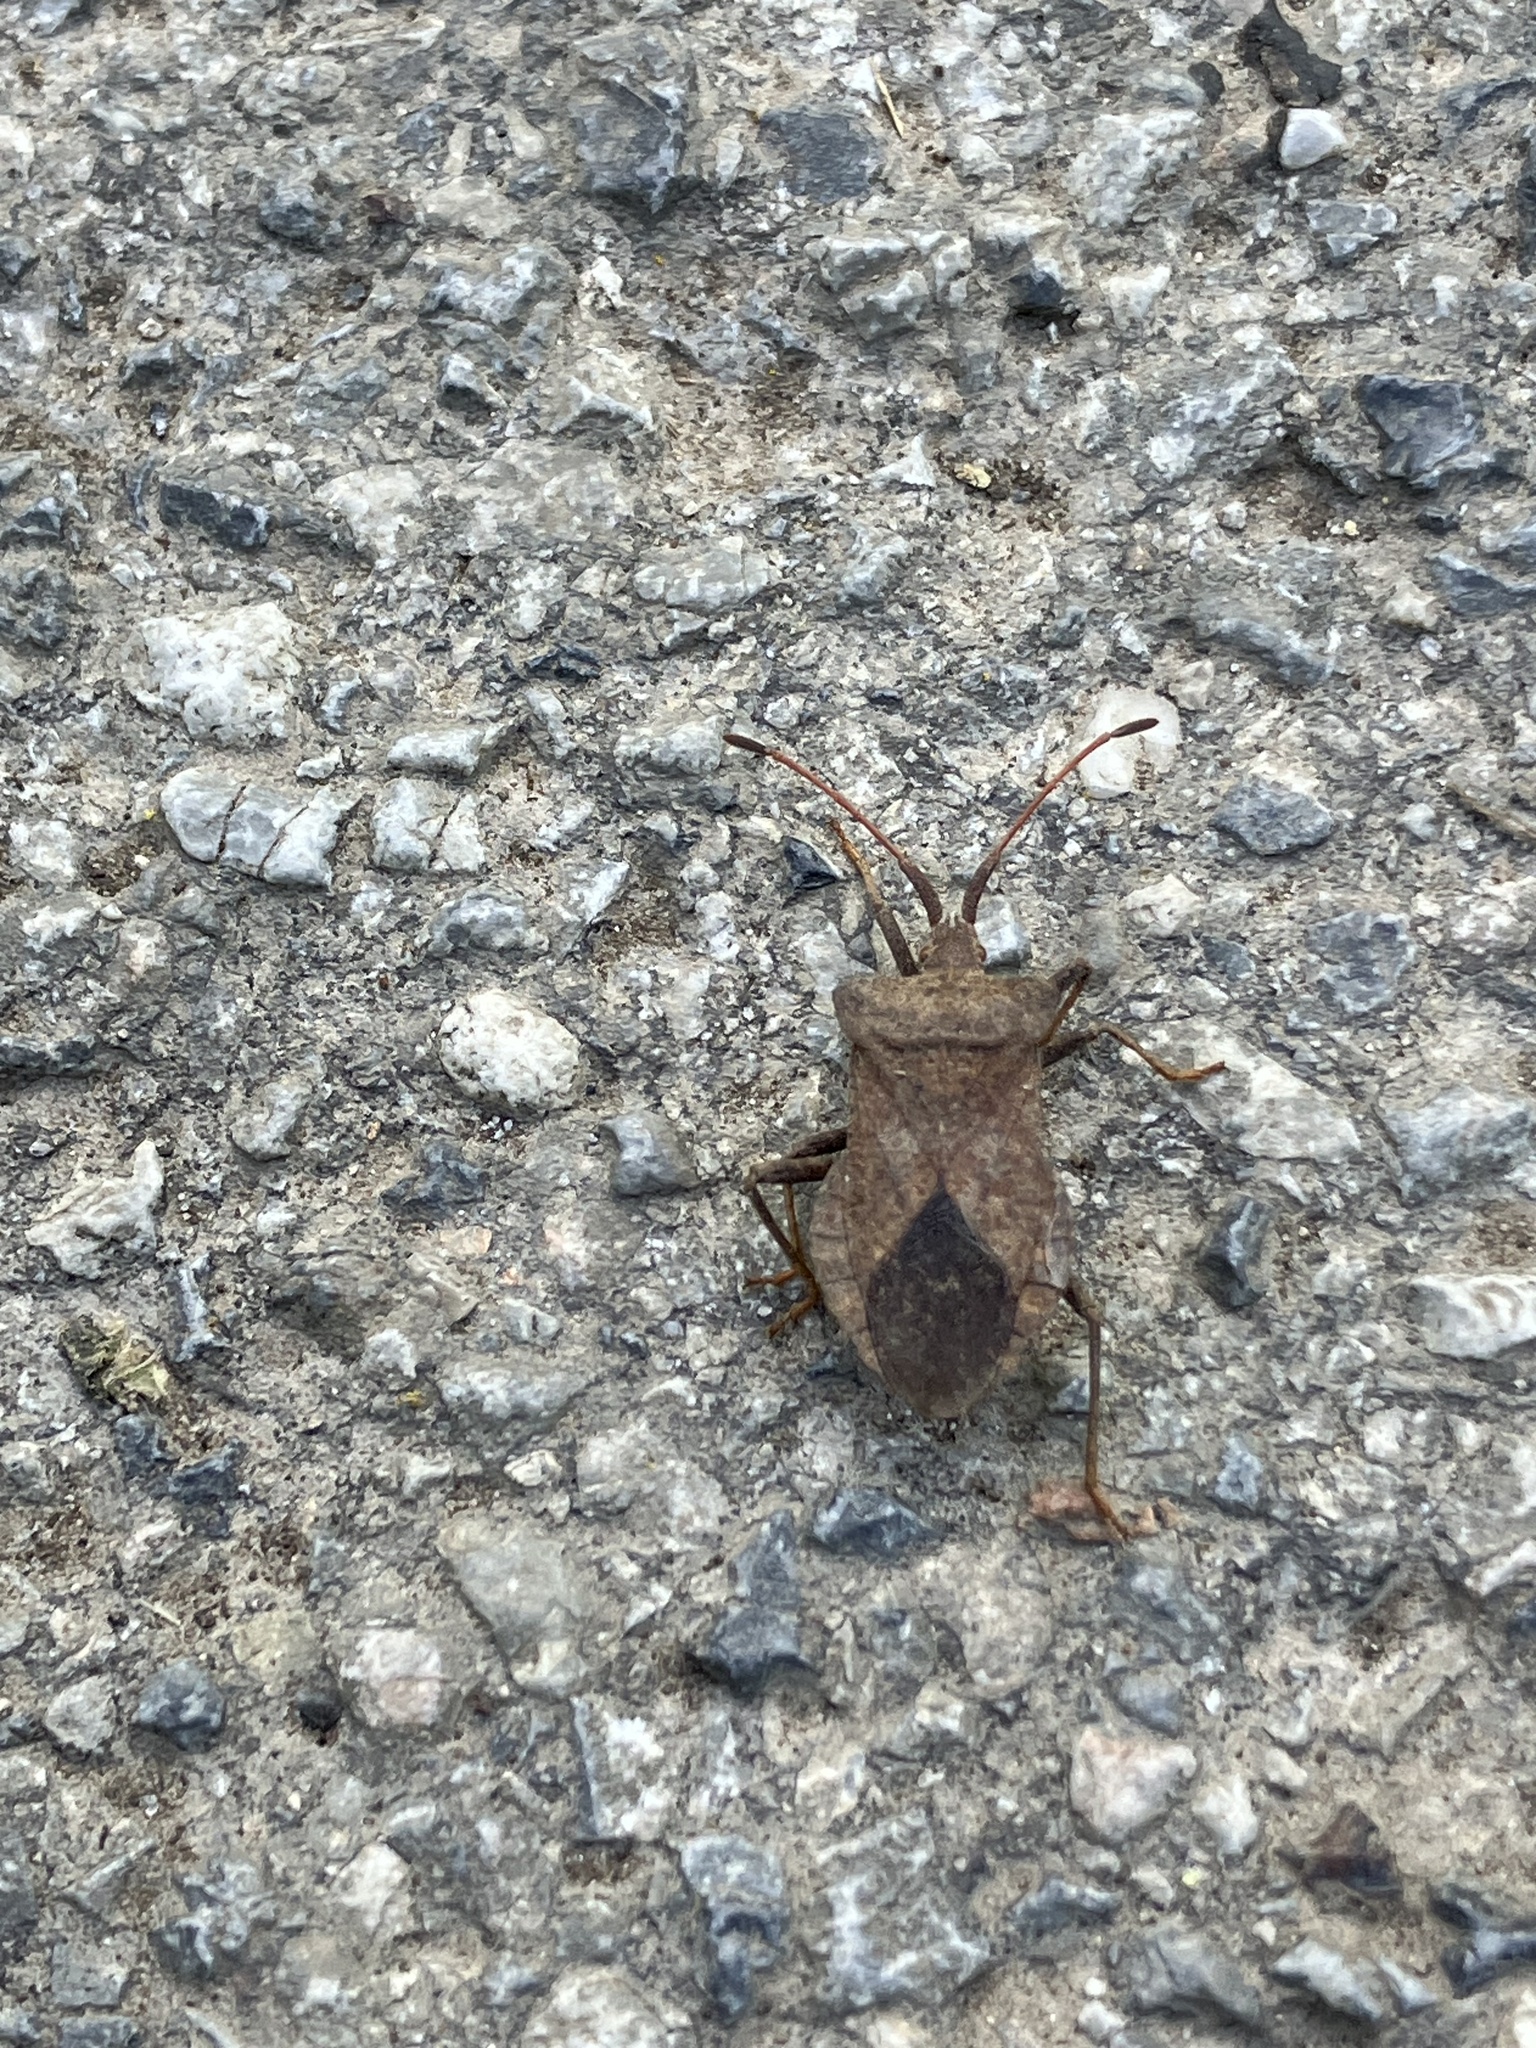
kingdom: Animalia
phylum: Arthropoda
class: Insecta
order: Hemiptera
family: Coreidae
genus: Coreus
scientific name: Coreus marginatus
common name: Dock bug
